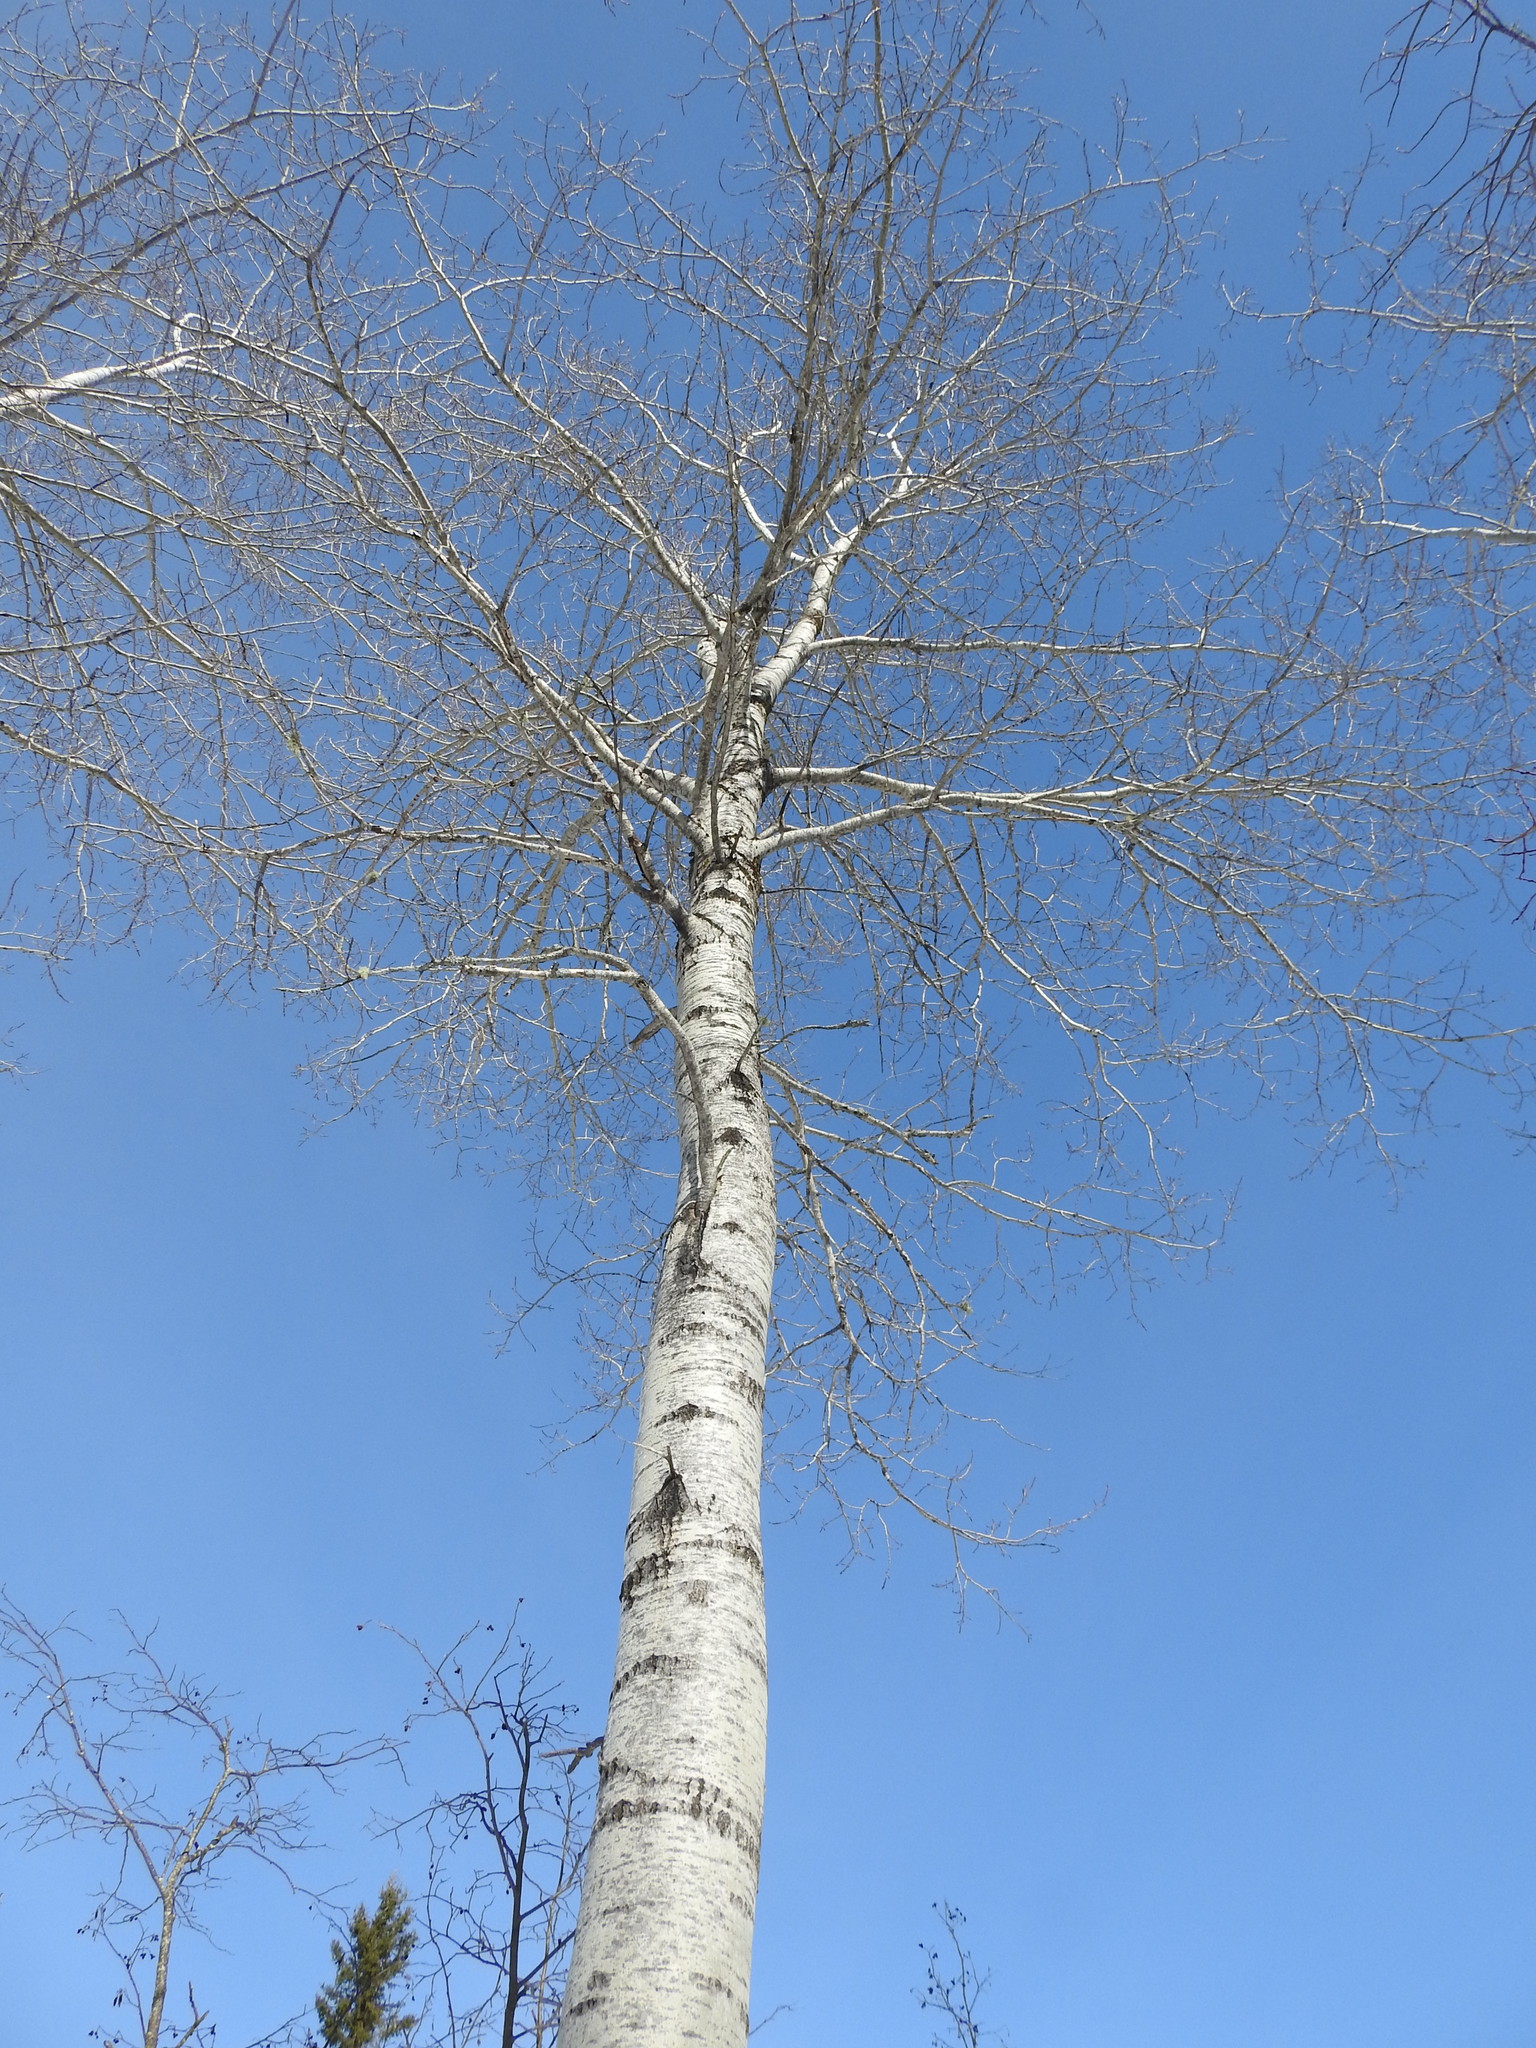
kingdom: Plantae
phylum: Tracheophyta
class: Magnoliopsida
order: Malpighiales
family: Salicaceae
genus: Populus
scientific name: Populus tremuloides
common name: Quaking aspen
